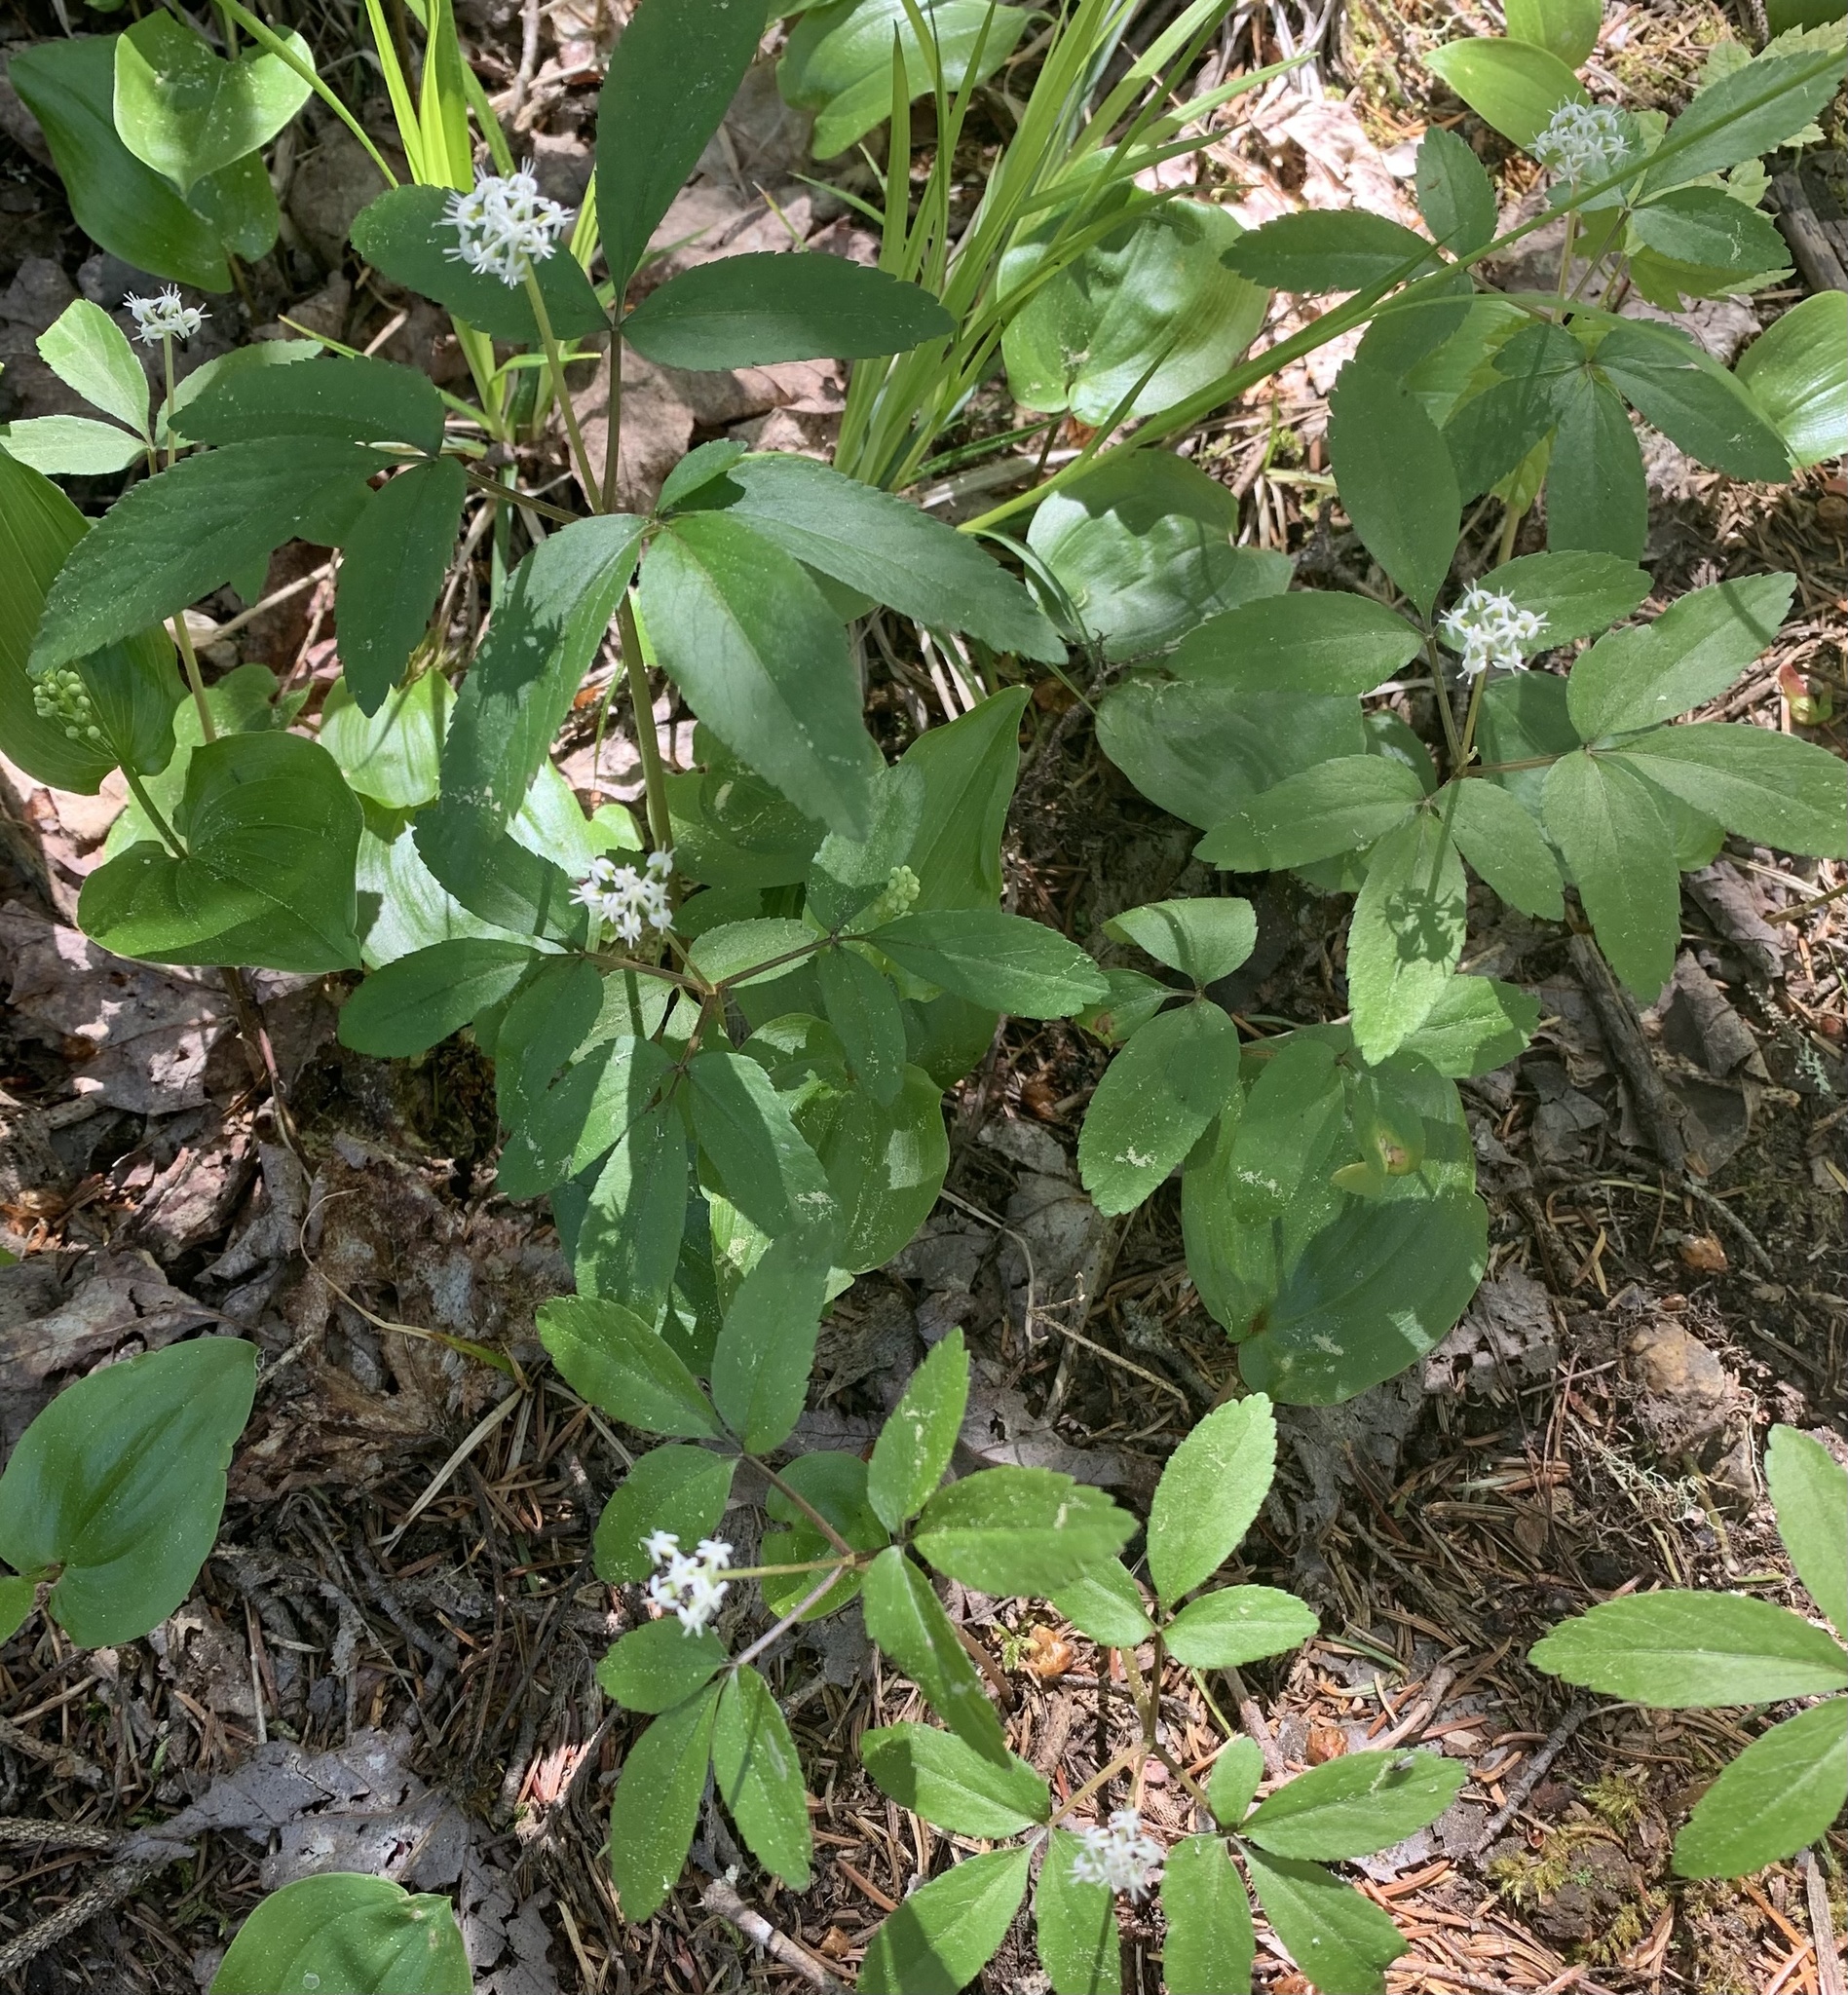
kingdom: Plantae
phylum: Tracheophyta
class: Magnoliopsida
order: Apiales
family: Araliaceae
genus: Panax
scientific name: Panax trifolius
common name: Dwarf ginseng
